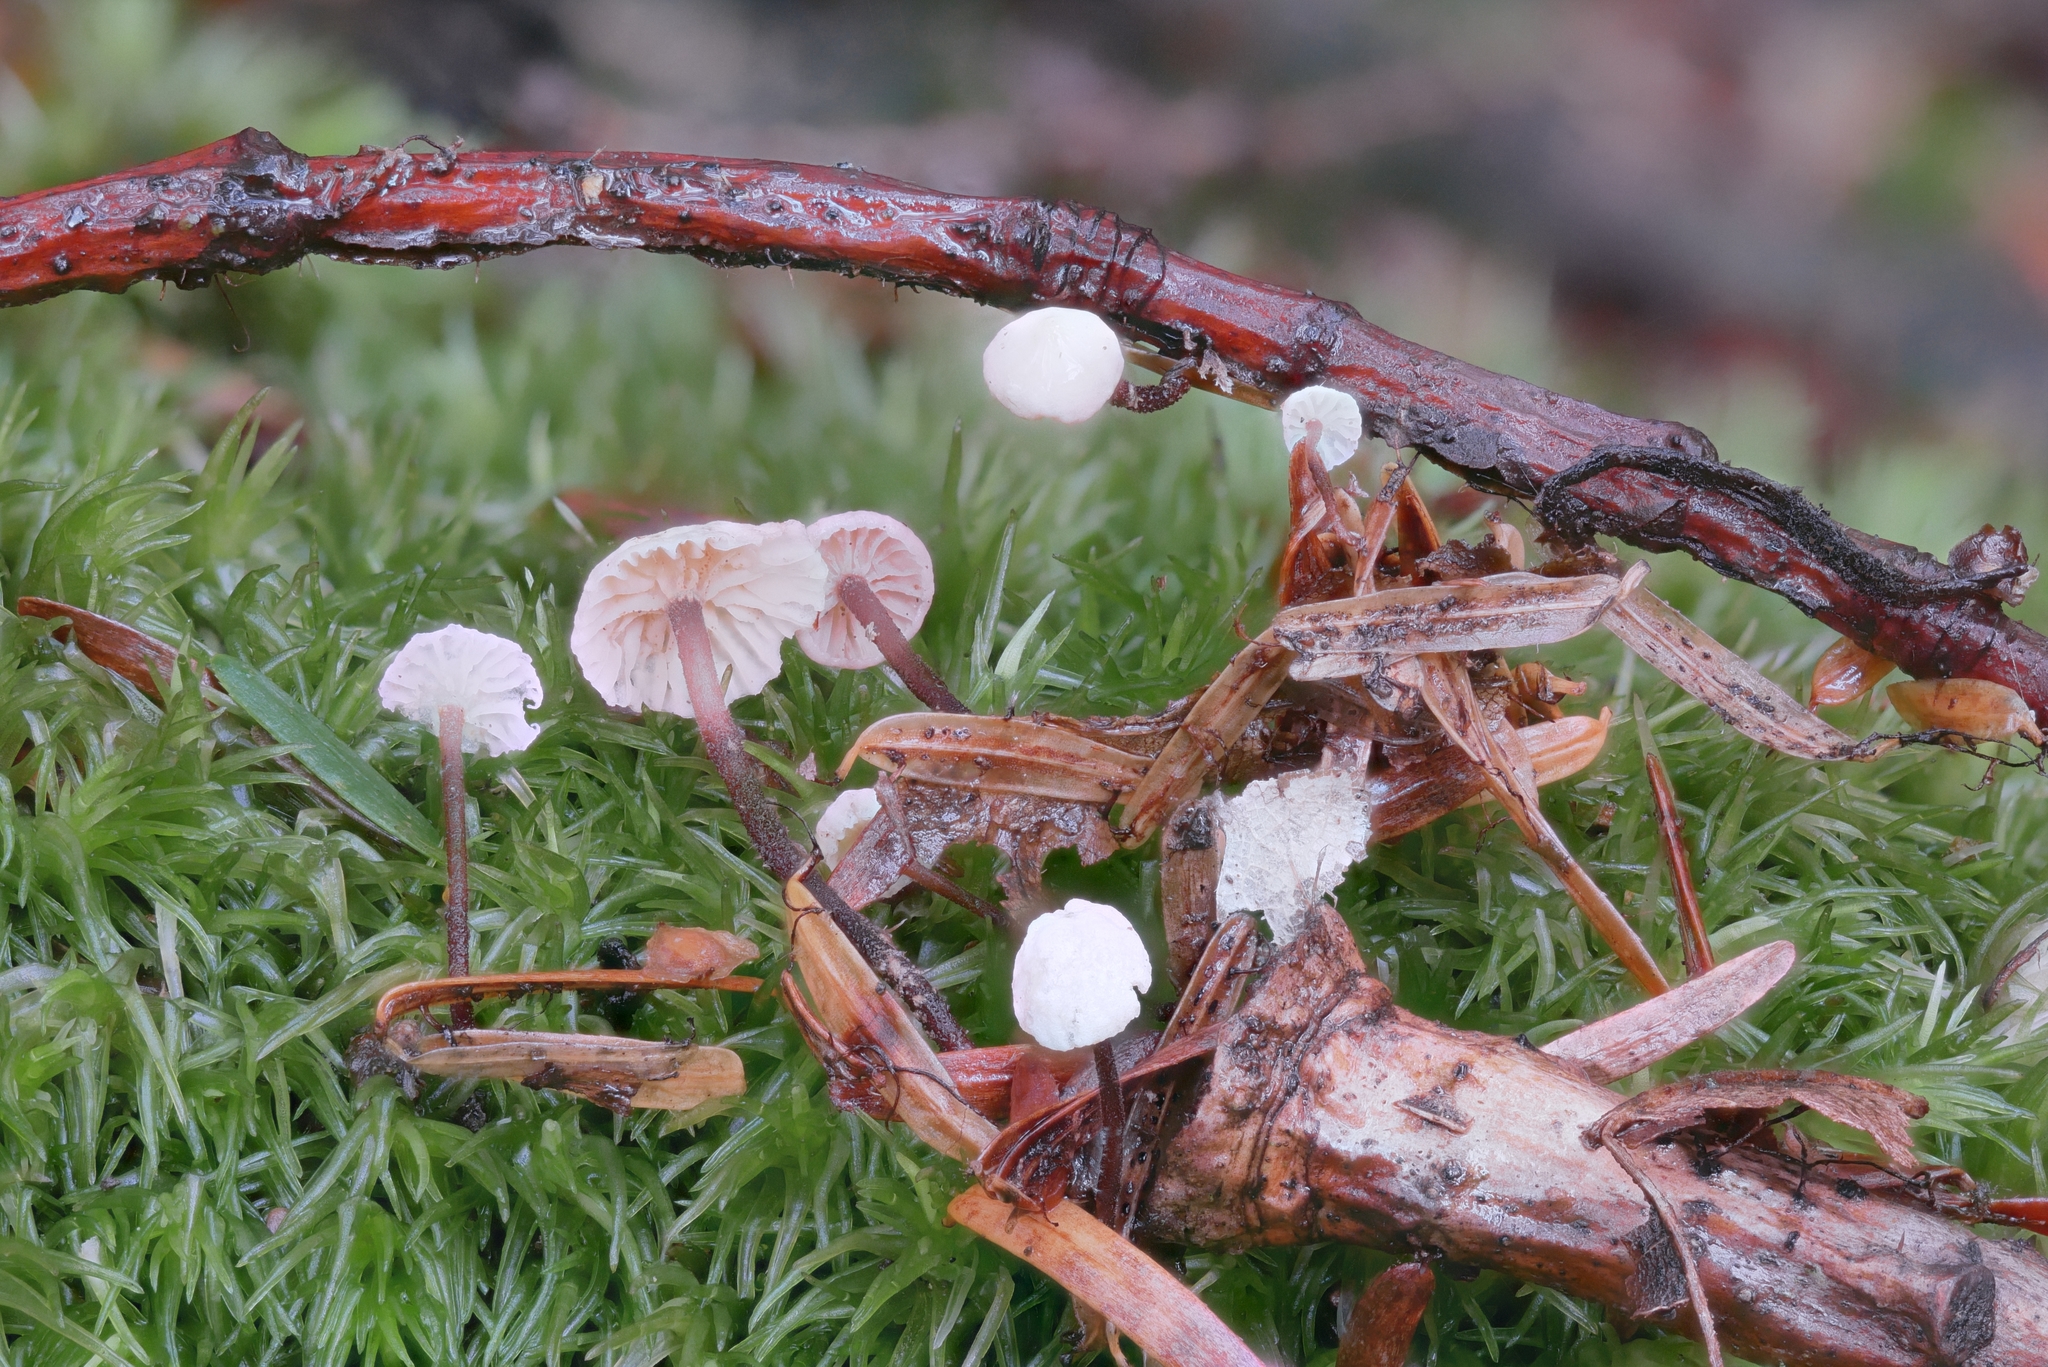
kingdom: Fungi
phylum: Basidiomycota
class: Agaricomycetes
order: Agaricales
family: Omphalotaceae
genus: Paragymnopus
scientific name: Paragymnopus perforans
